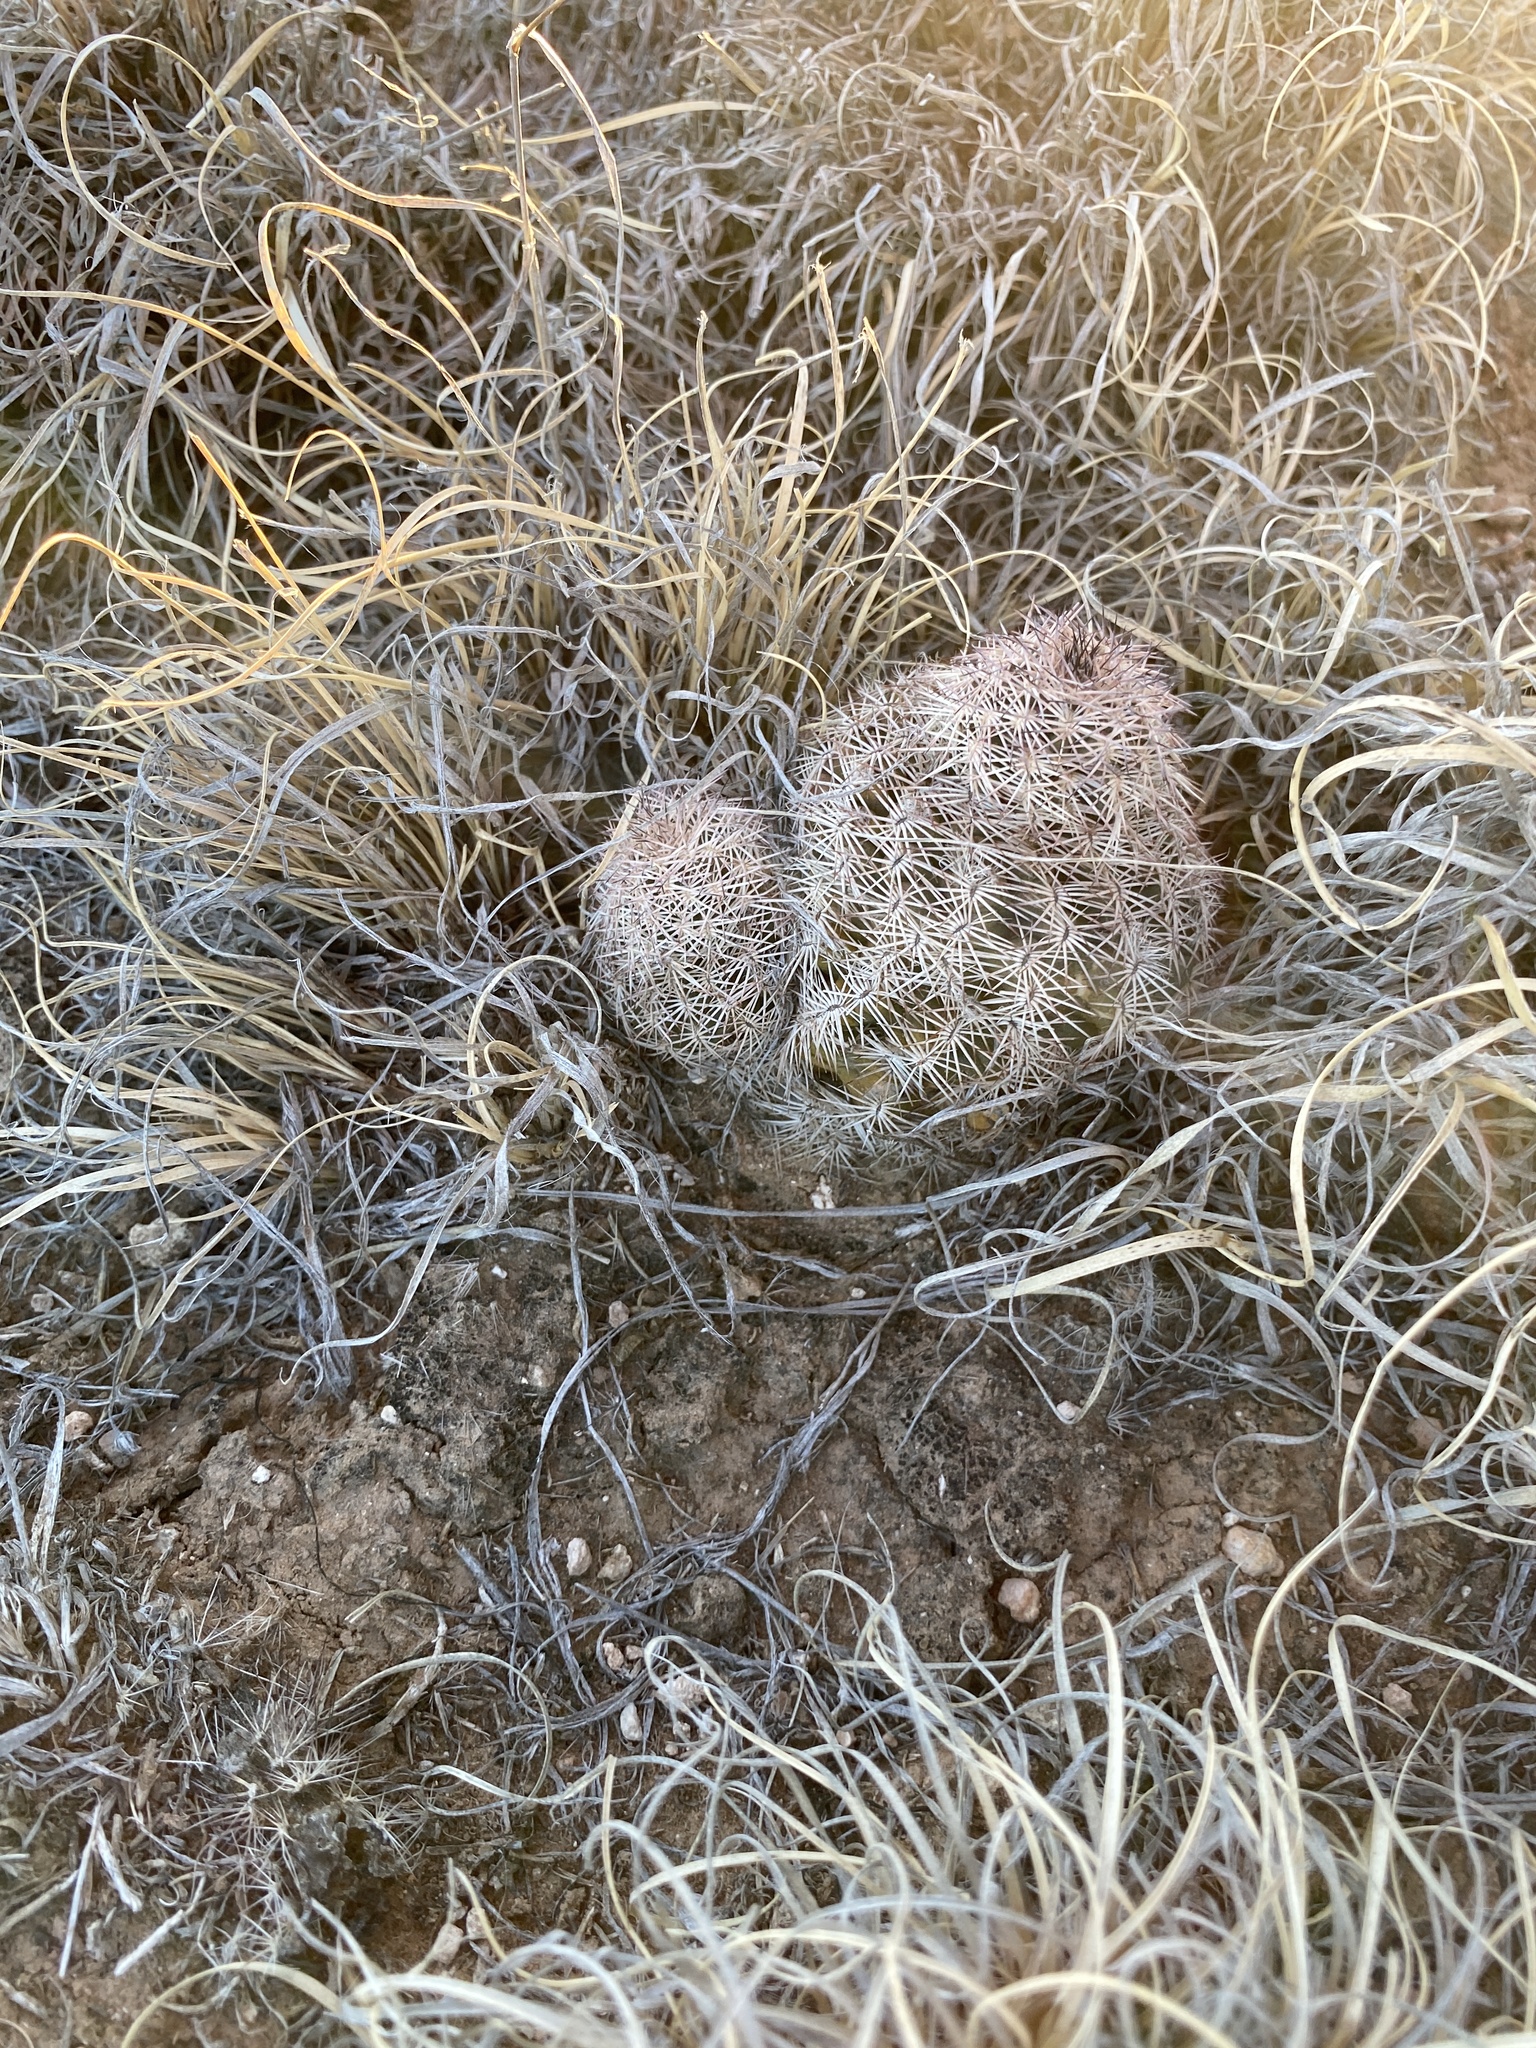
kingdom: Plantae
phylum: Tracheophyta
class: Magnoliopsida
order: Caryophyllales
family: Cactaceae
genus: Echinocereus
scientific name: Echinocereus reichenbachii
